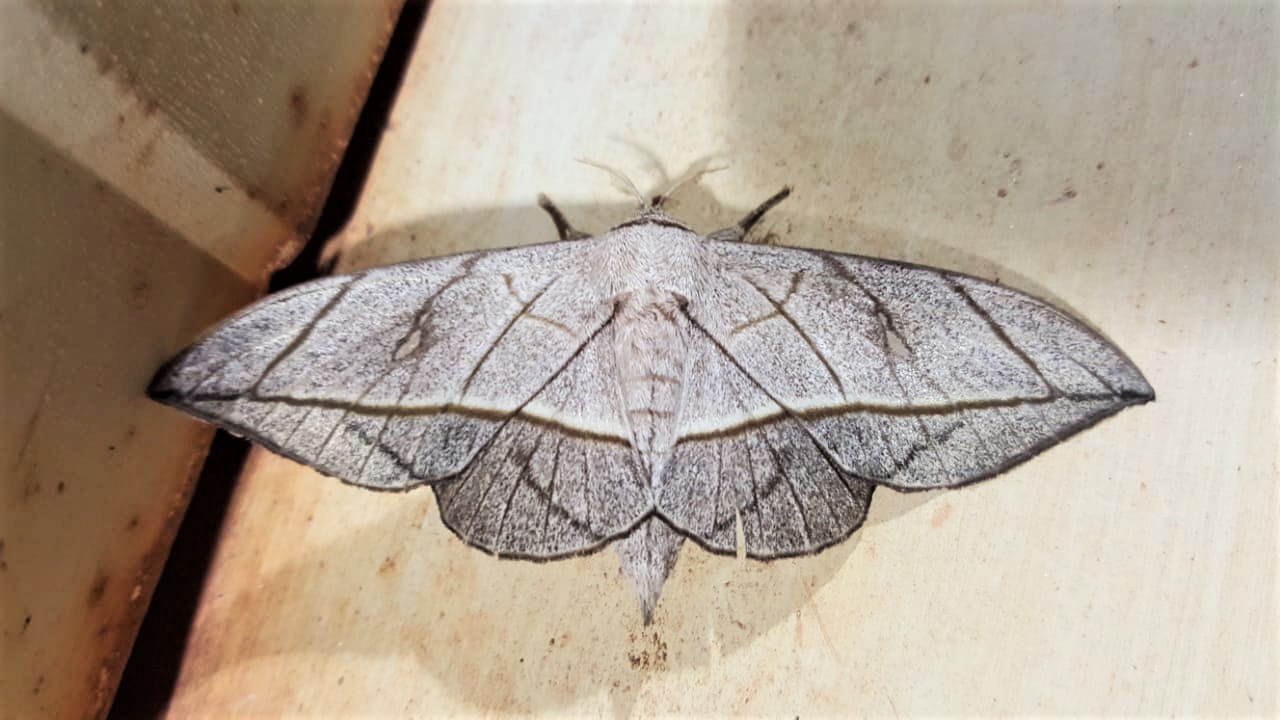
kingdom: Animalia
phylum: Arthropoda
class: Insecta
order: Lepidoptera
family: Mimallonidae
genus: Bedosia
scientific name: Bedosia fraterna
